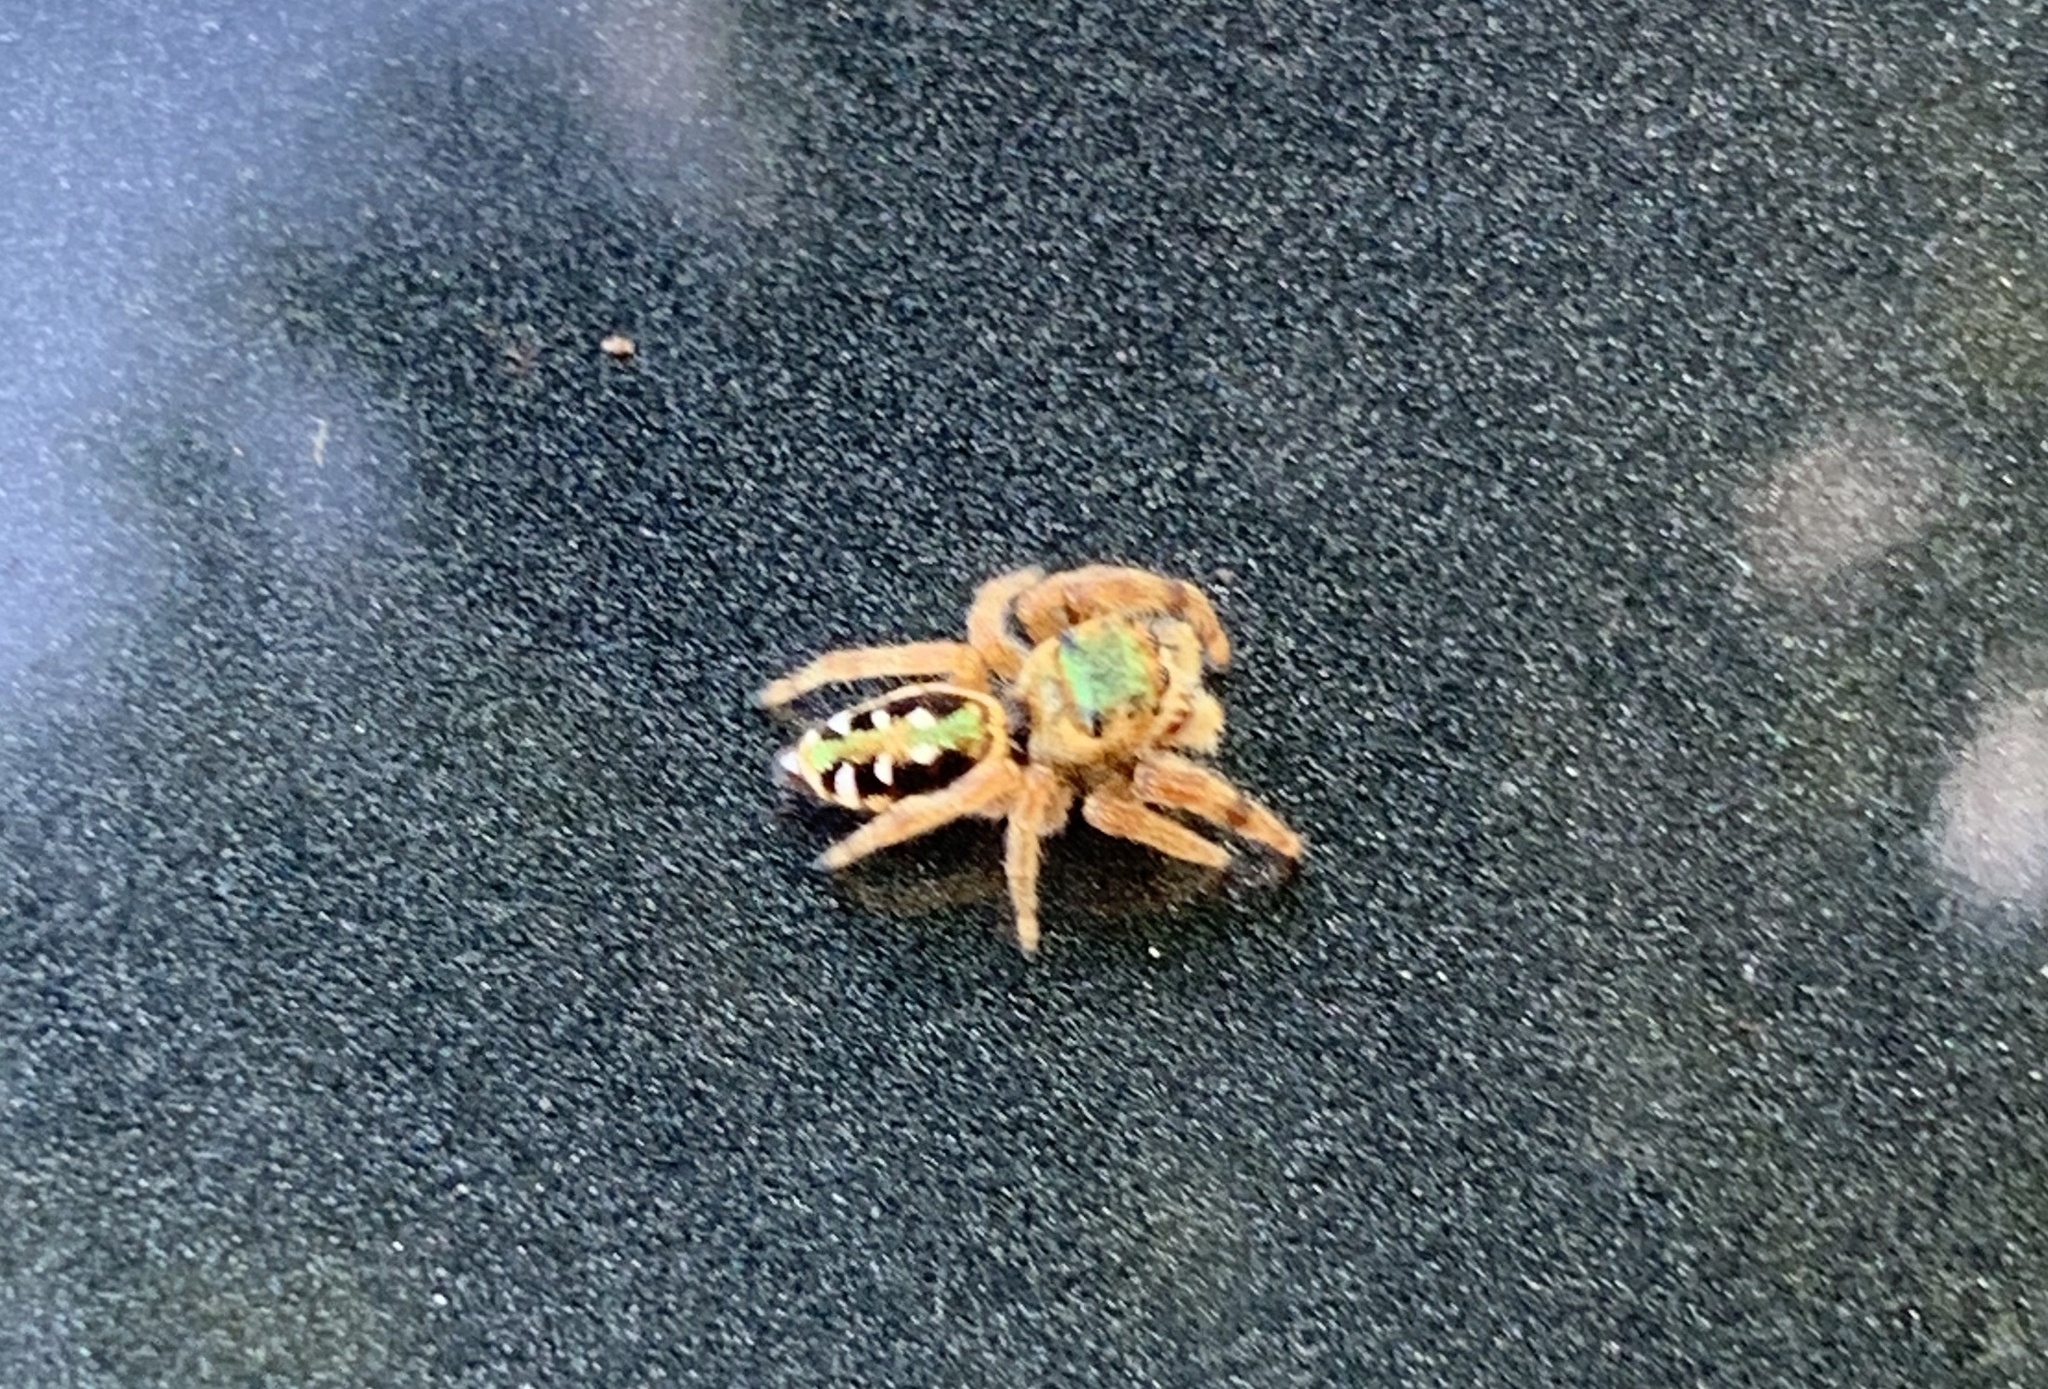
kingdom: Animalia
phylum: Arthropoda
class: Arachnida
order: Araneae
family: Salticidae
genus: Paraphidippus
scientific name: Paraphidippus aurantius
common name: Jumping spiders
